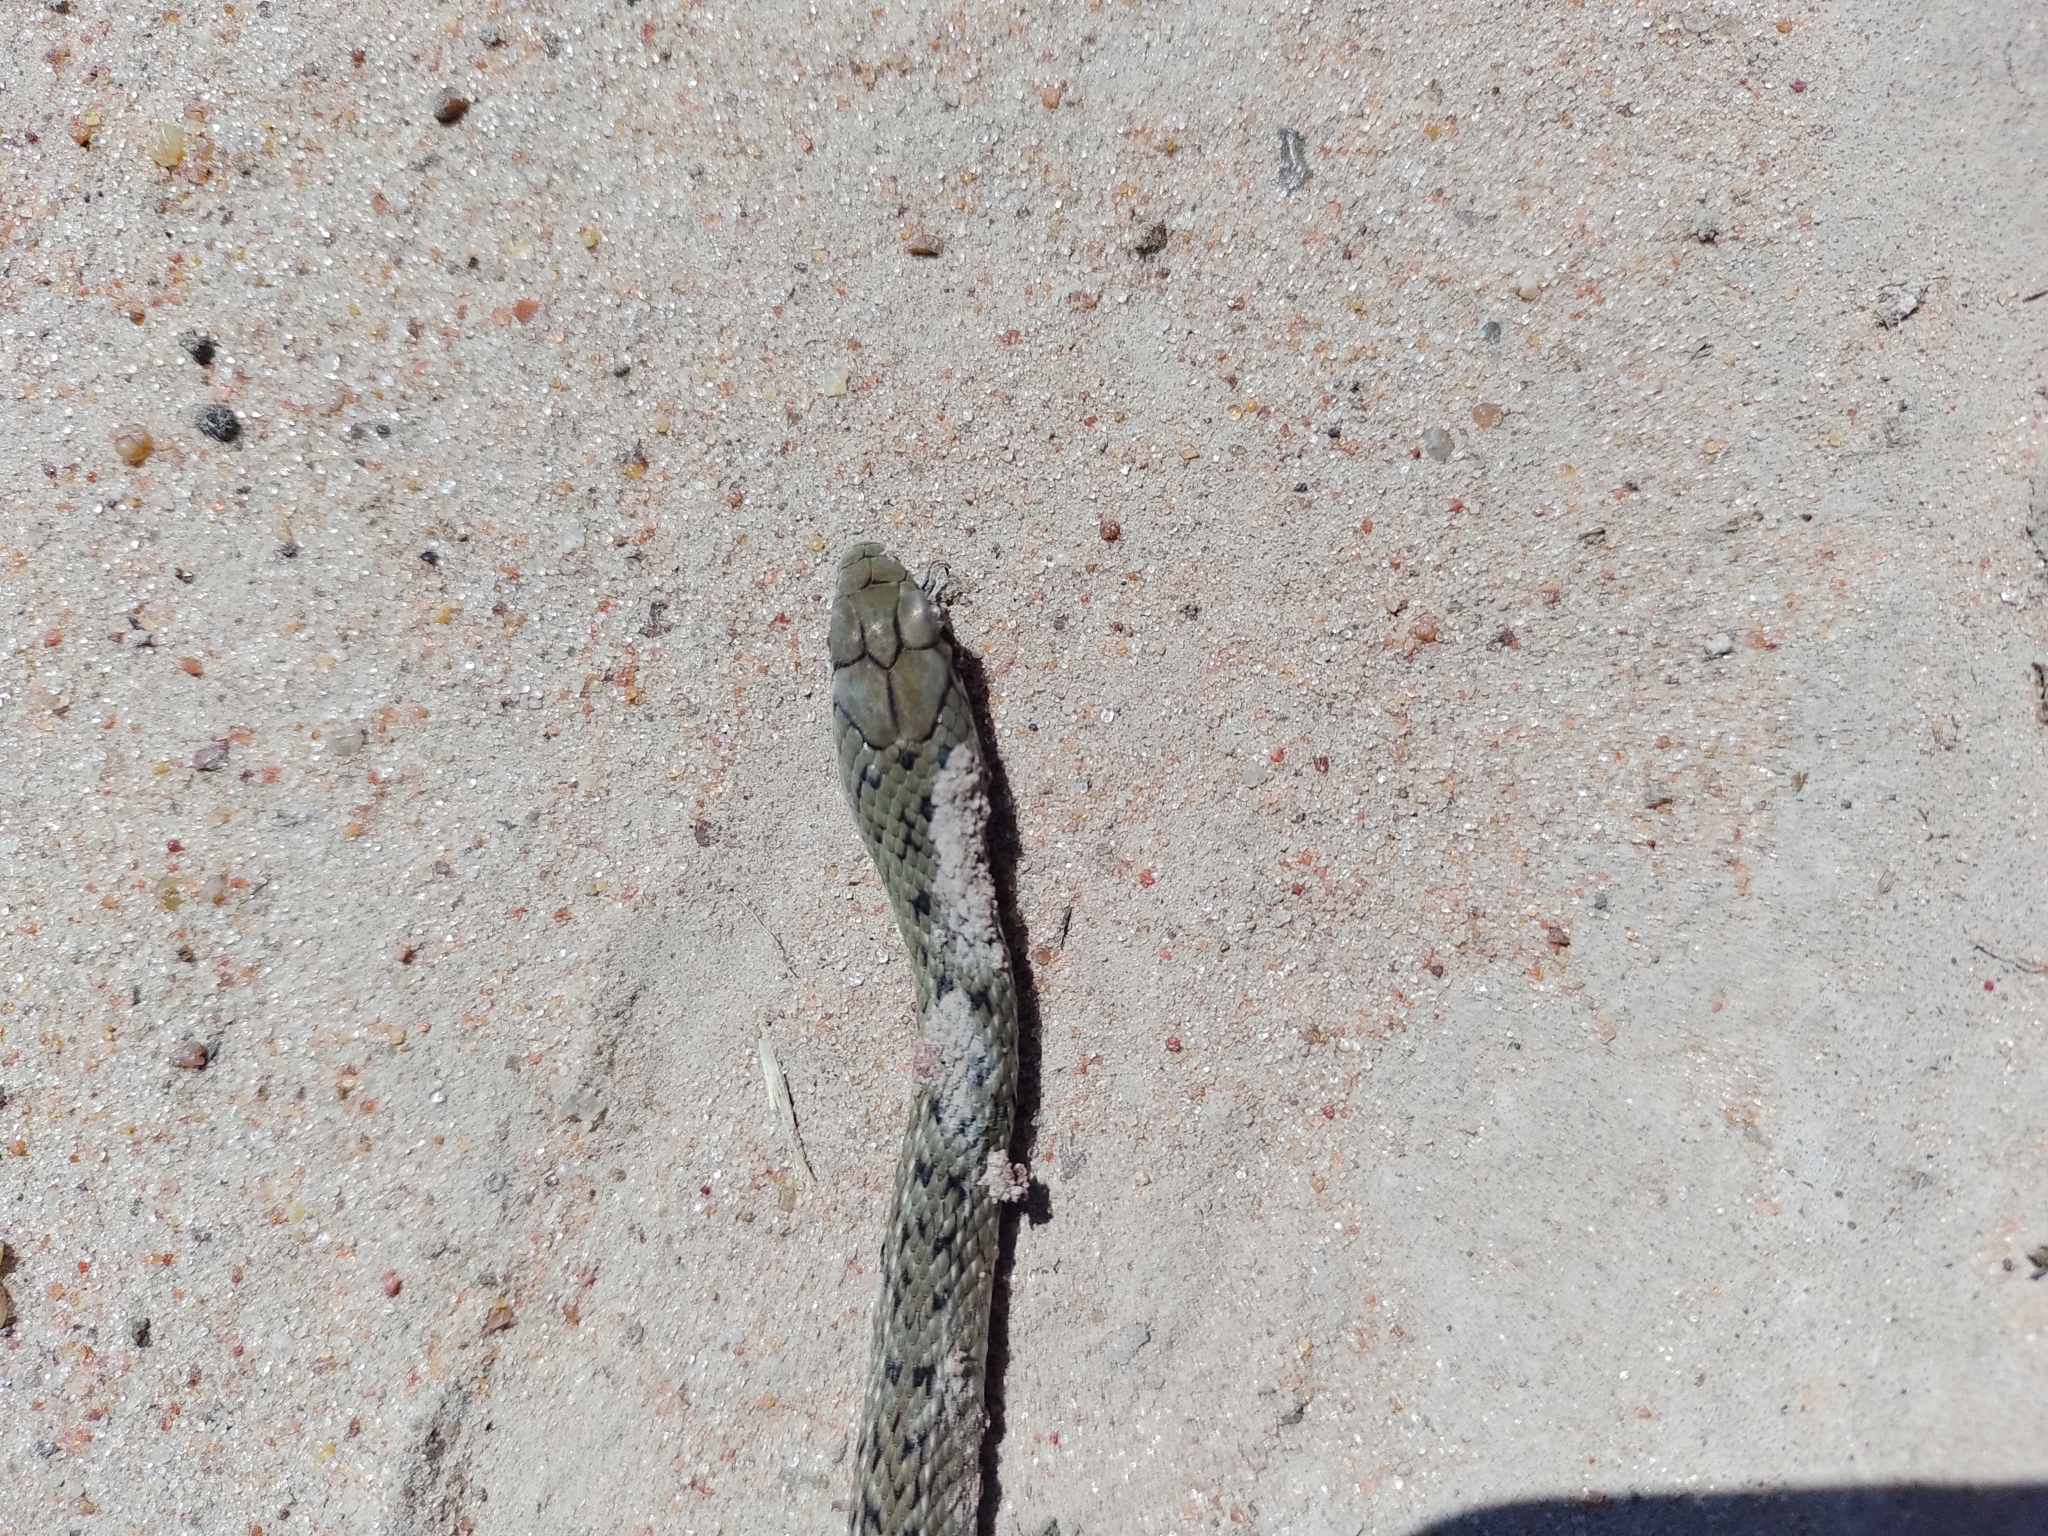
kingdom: Animalia
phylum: Chordata
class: Squamata
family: Colubridae
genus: Philodryas
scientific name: Philodryas patagoniensis
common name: Patagonia green racer
